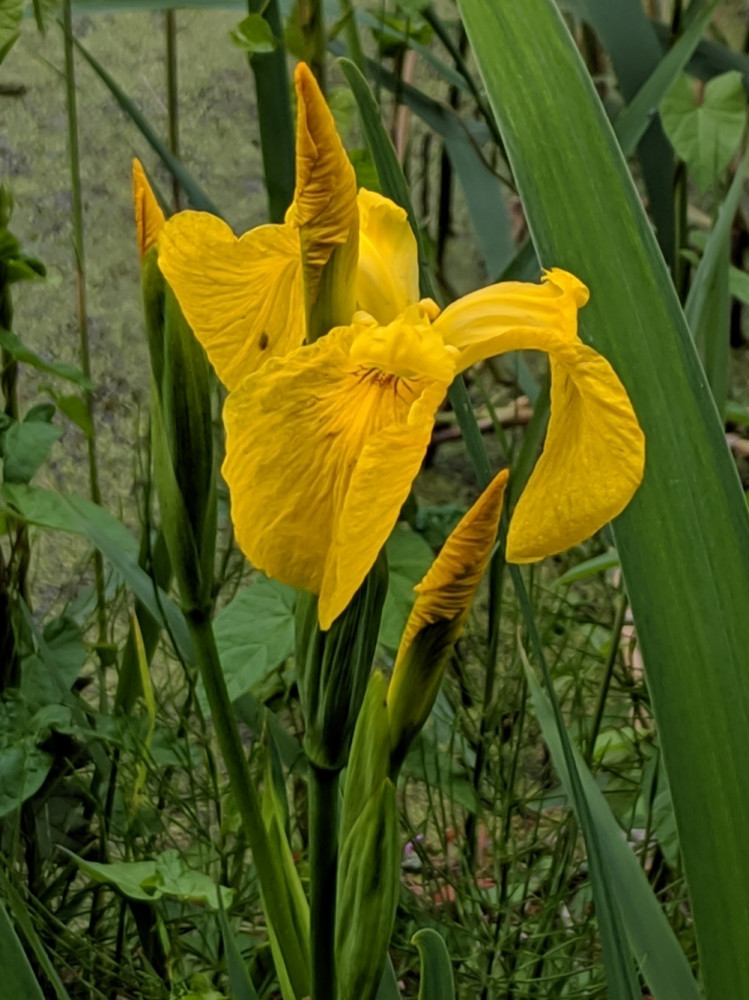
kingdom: Plantae
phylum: Tracheophyta
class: Liliopsida
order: Asparagales
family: Iridaceae
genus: Iris
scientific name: Iris pseudacorus
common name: Yellow flag
